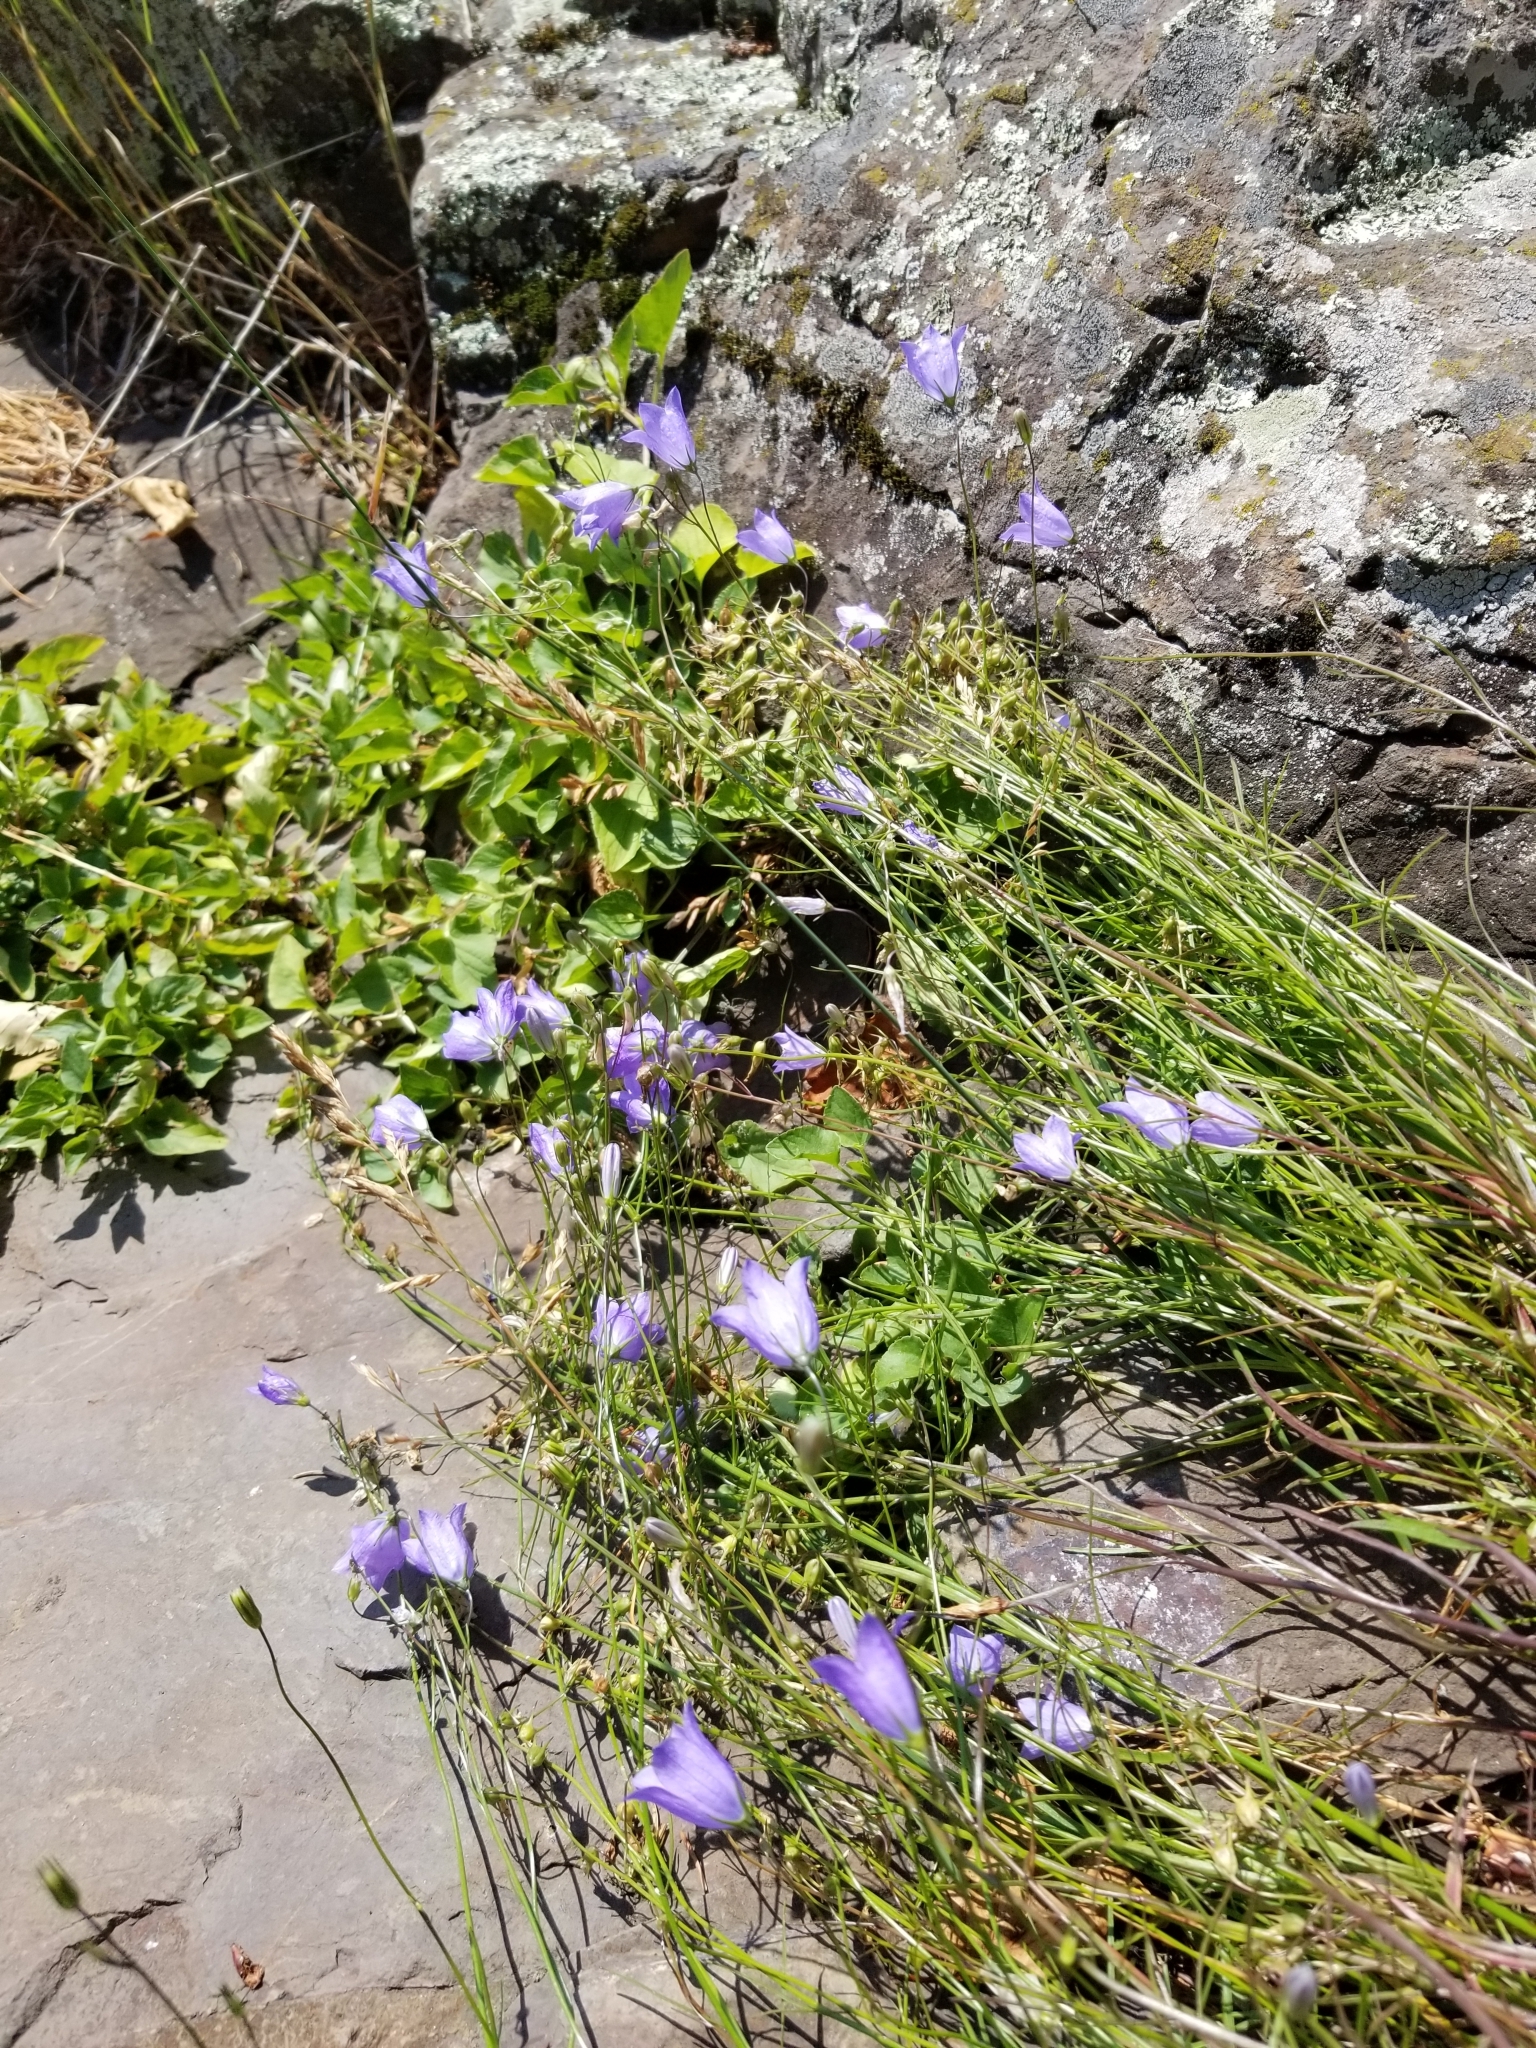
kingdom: Plantae
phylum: Tracheophyta
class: Magnoliopsida
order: Asterales
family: Campanulaceae
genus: Campanula
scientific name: Campanula intercedens
